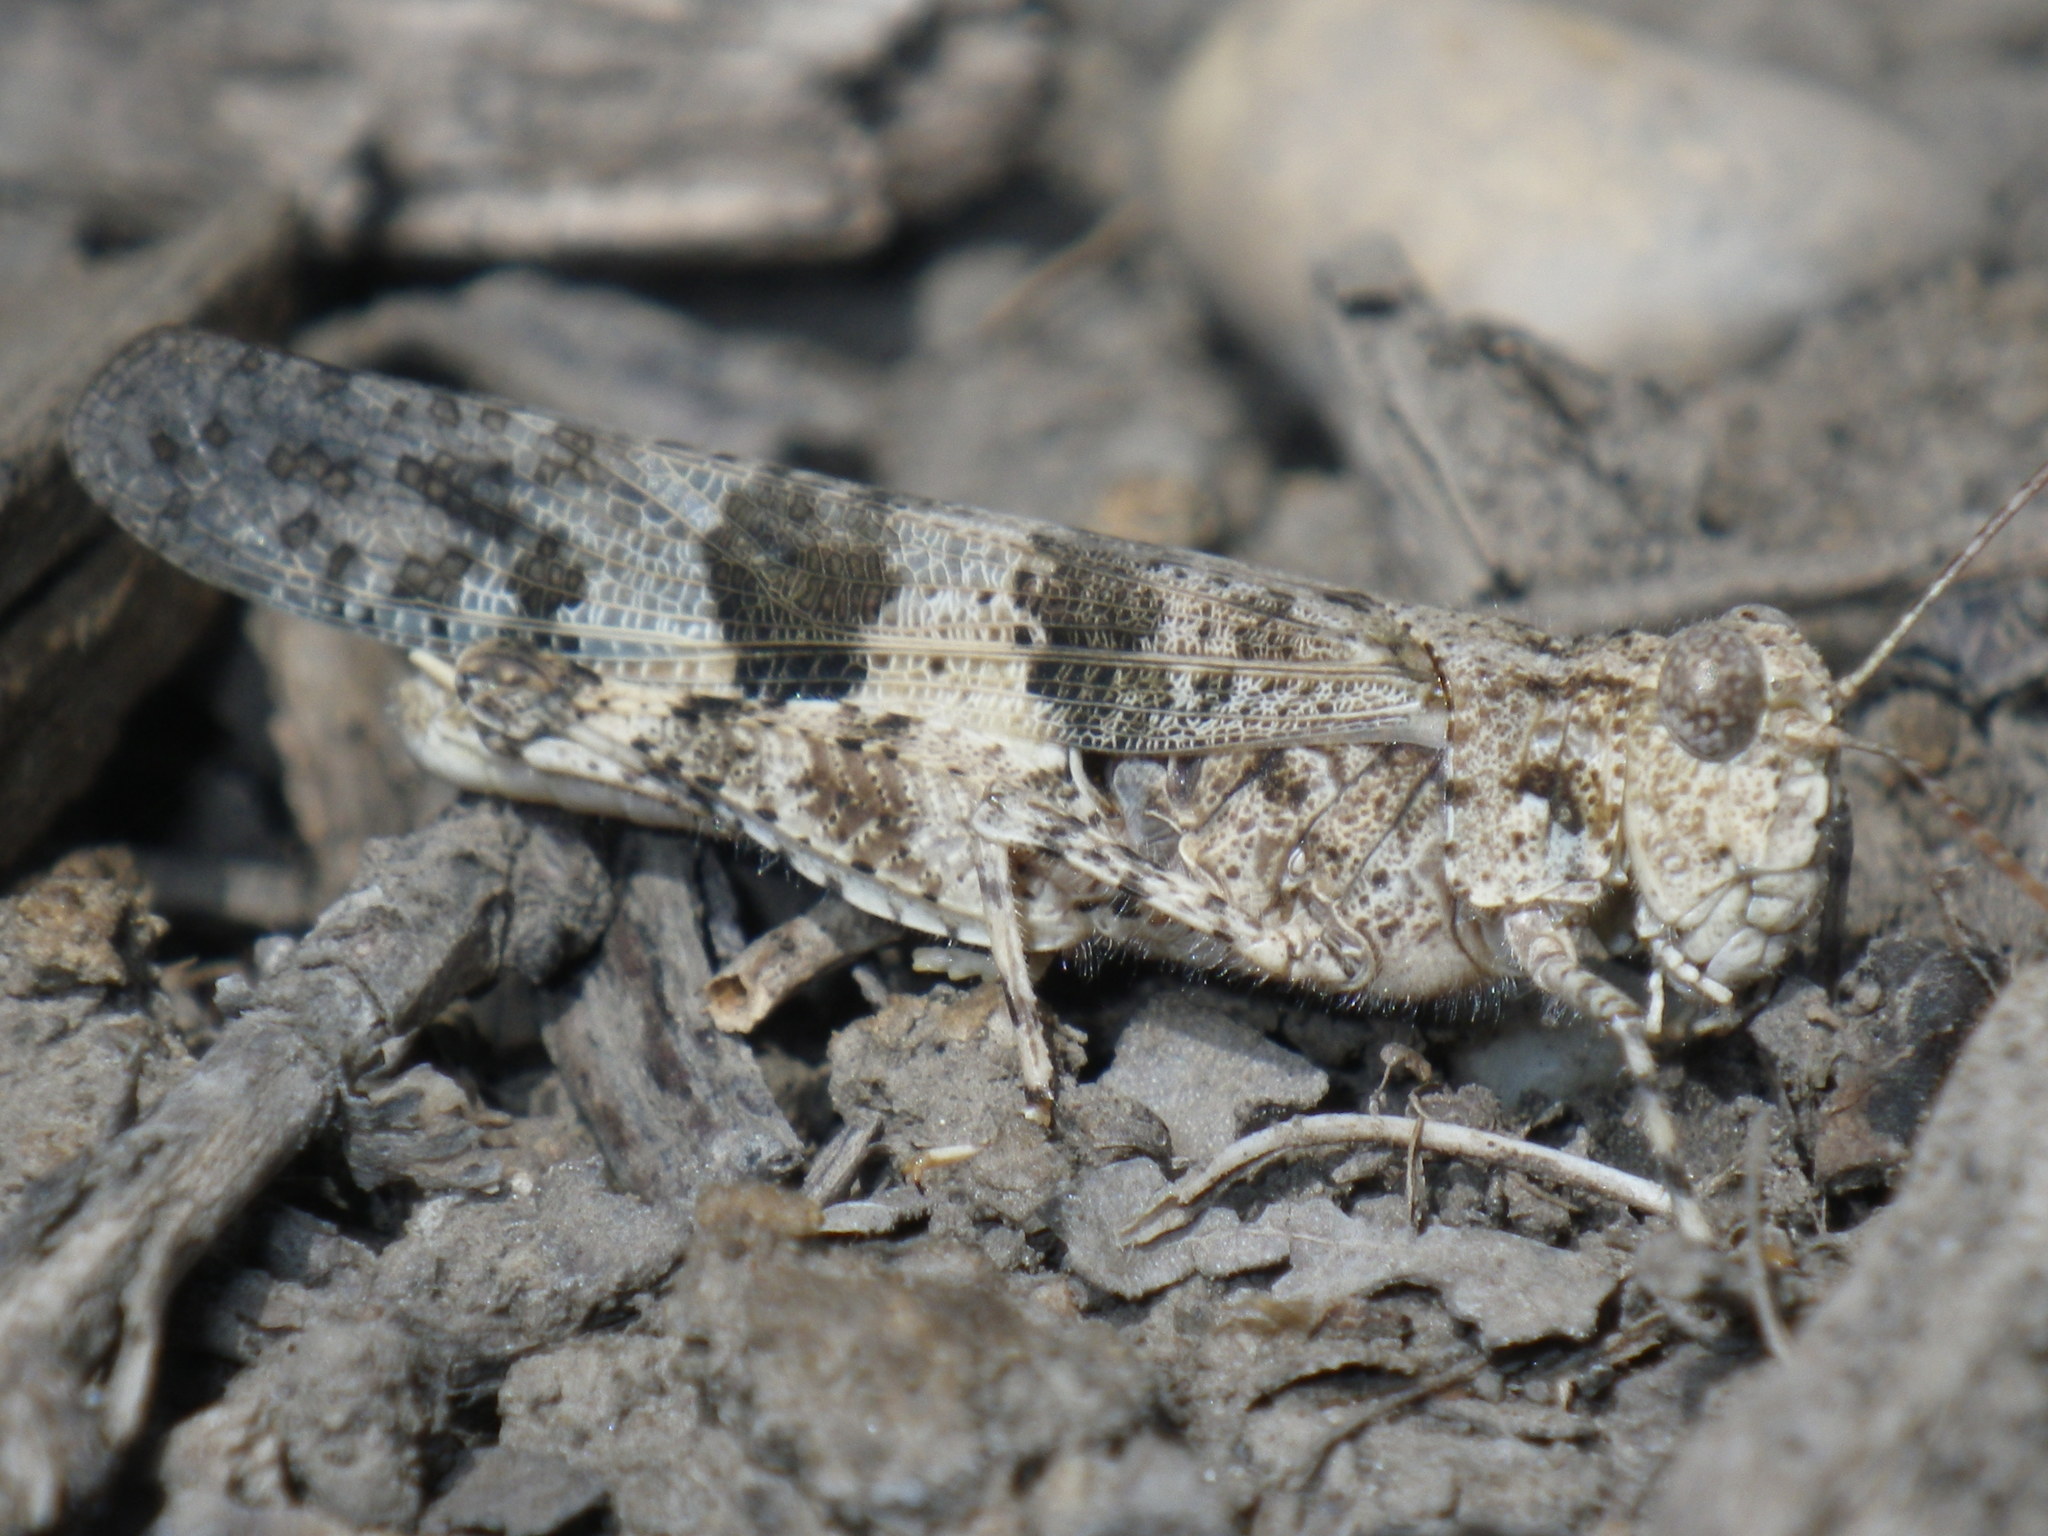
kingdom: Animalia
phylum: Arthropoda
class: Insecta
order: Orthoptera
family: Acrididae
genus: Trimerotropis
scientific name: Trimerotropis pallidipennis
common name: Pallid-winged grasshopper
